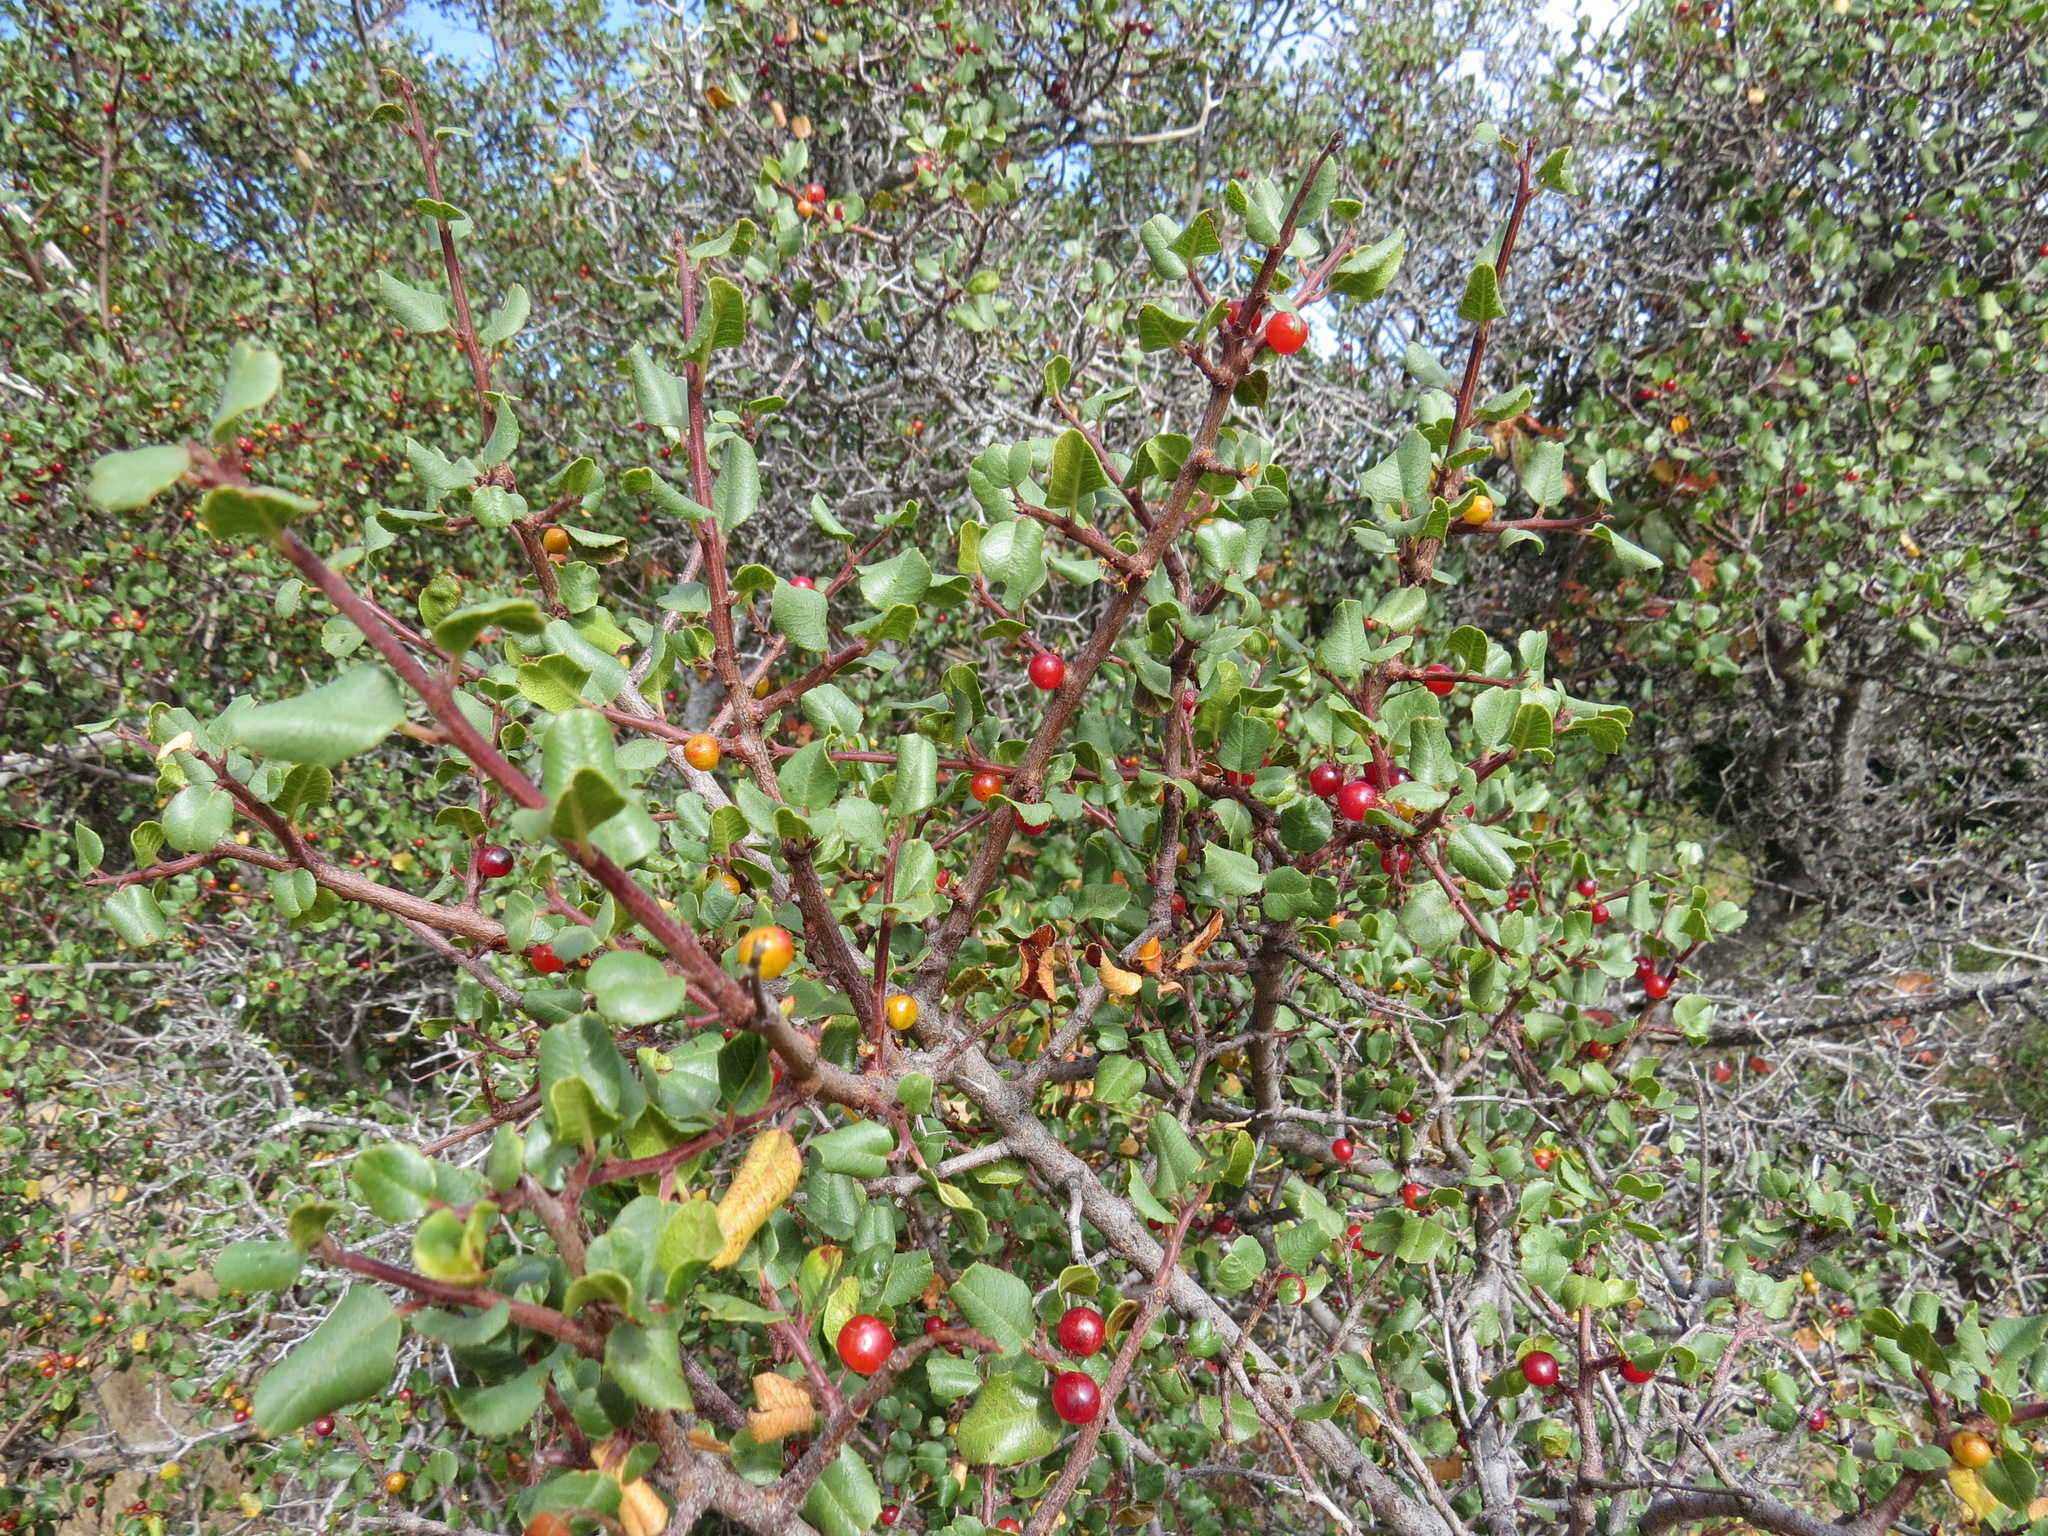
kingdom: Plantae
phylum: Tracheophyta
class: Magnoliopsida
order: Rosales
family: Rhamnaceae
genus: Endotropis
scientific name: Endotropis crocea
